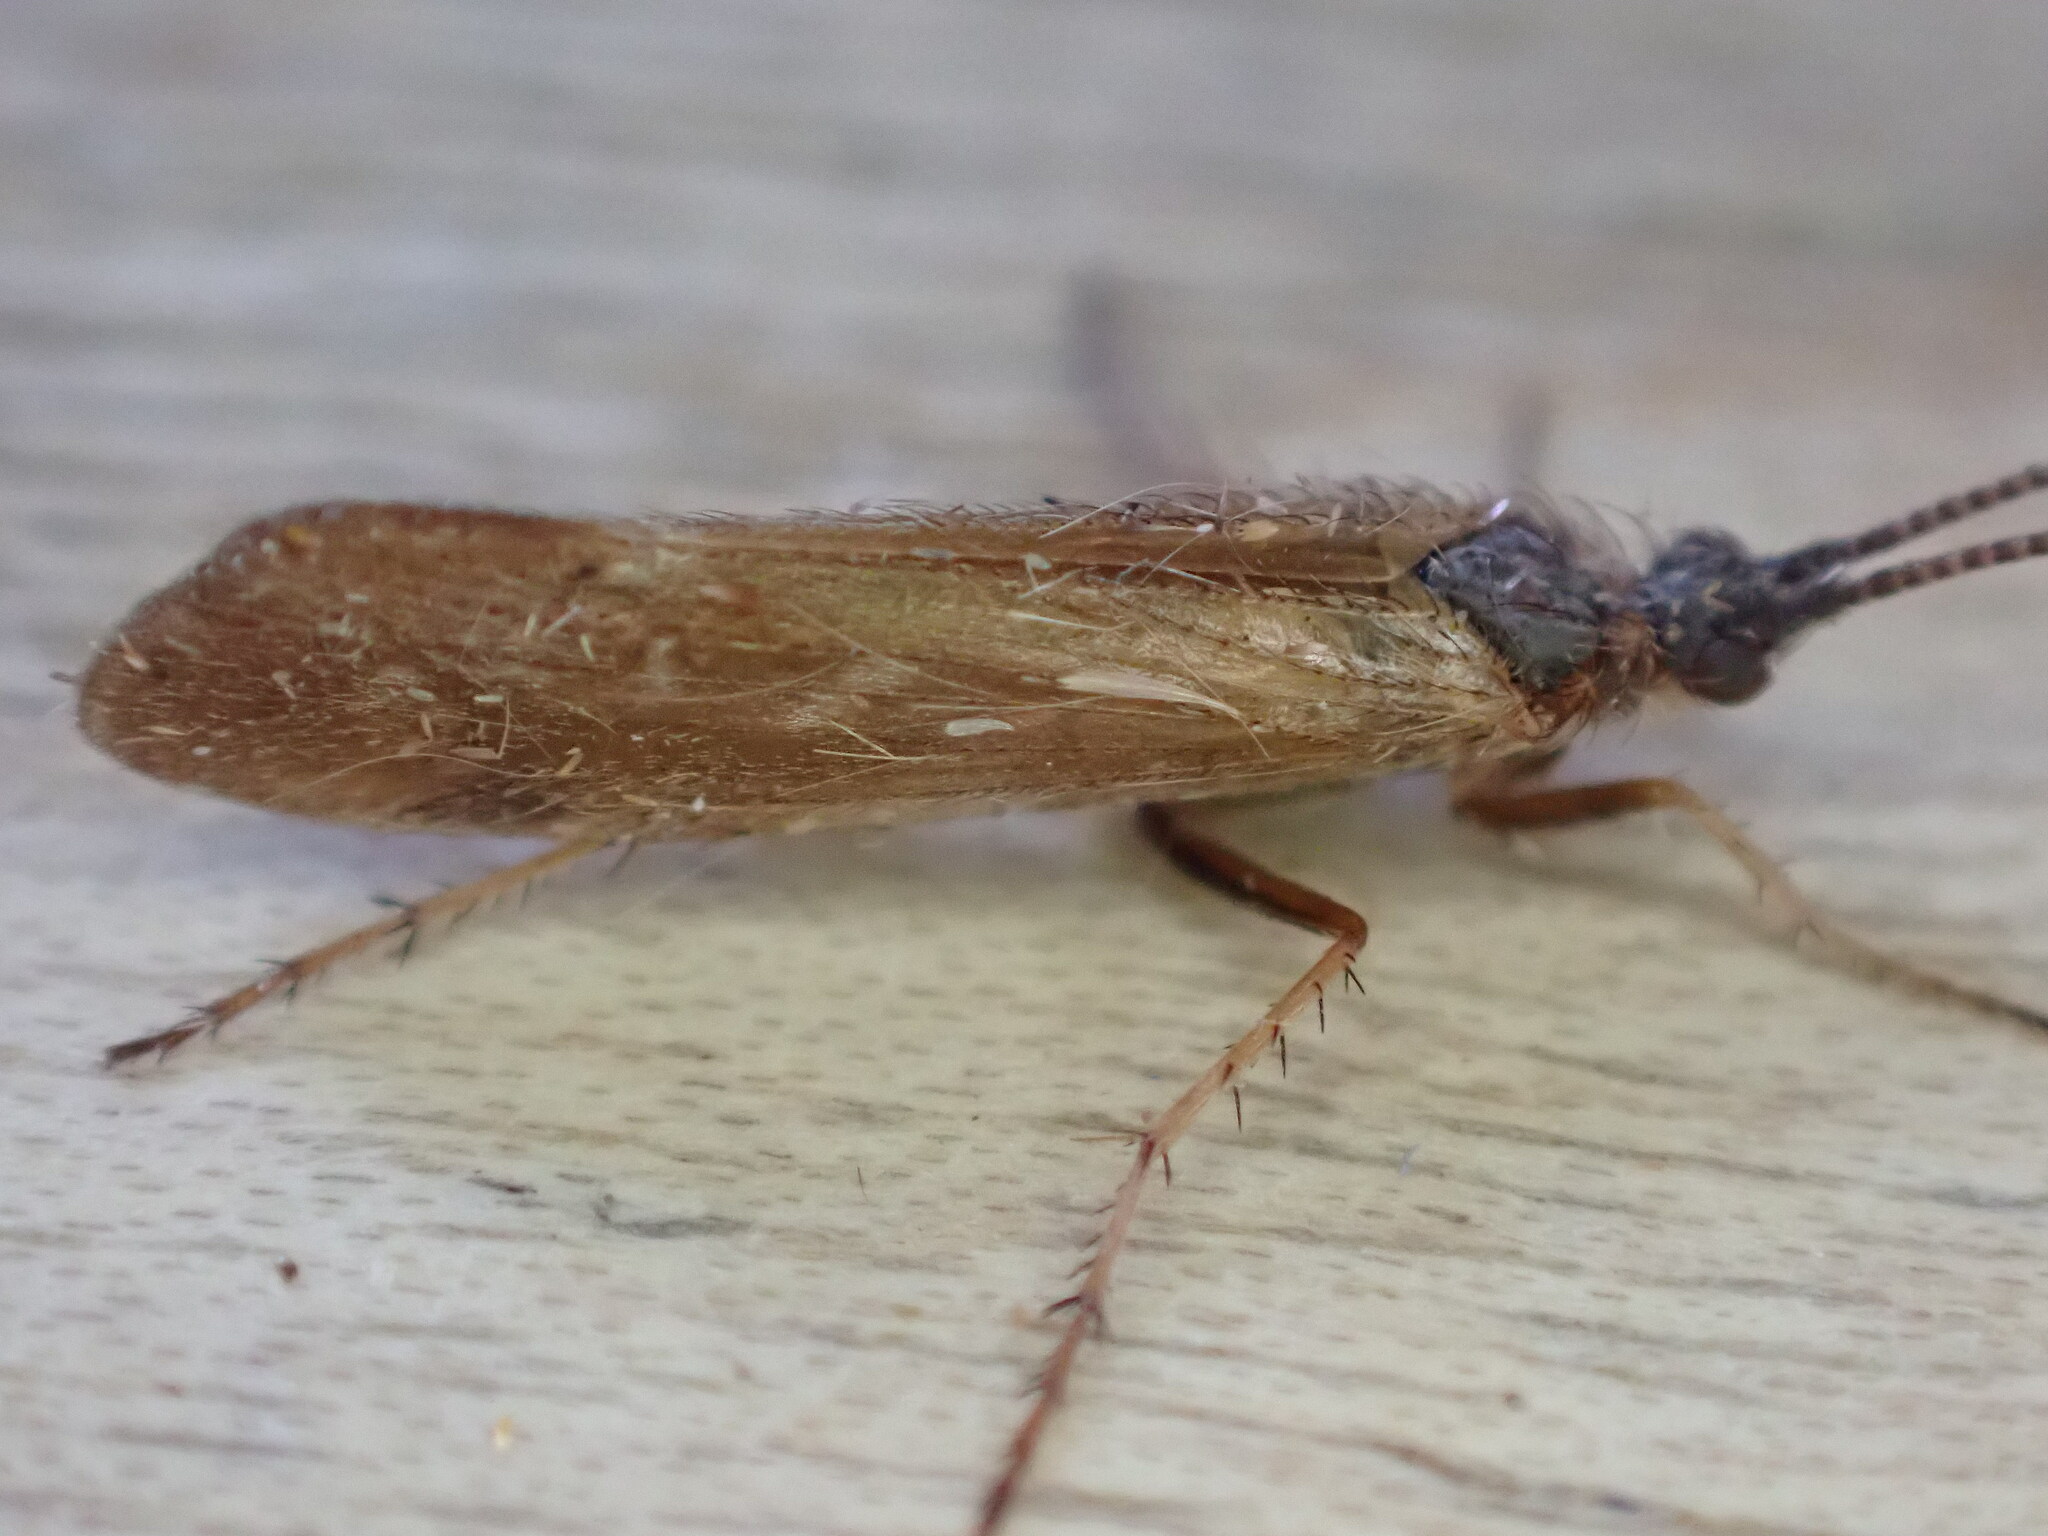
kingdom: Animalia
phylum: Arthropoda
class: Insecta
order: Trichoptera
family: Limnephilidae
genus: Limnephilus
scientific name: Limnephilus auricula
